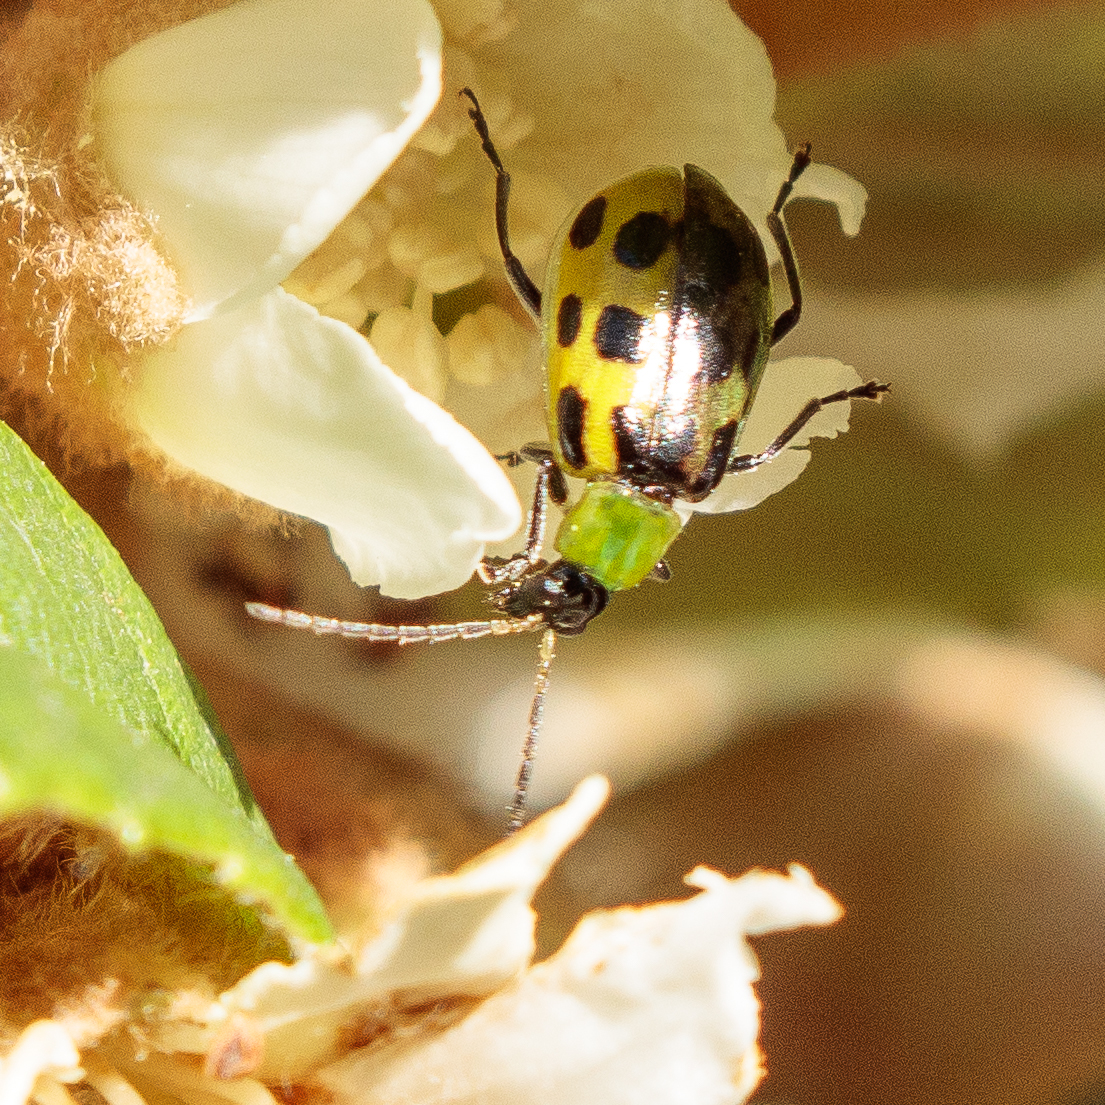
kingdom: Animalia
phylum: Arthropoda
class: Insecta
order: Coleoptera
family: Chrysomelidae
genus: Diabrotica
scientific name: Diabrotica undecimpunctata
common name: Spotted cucumber beetle
